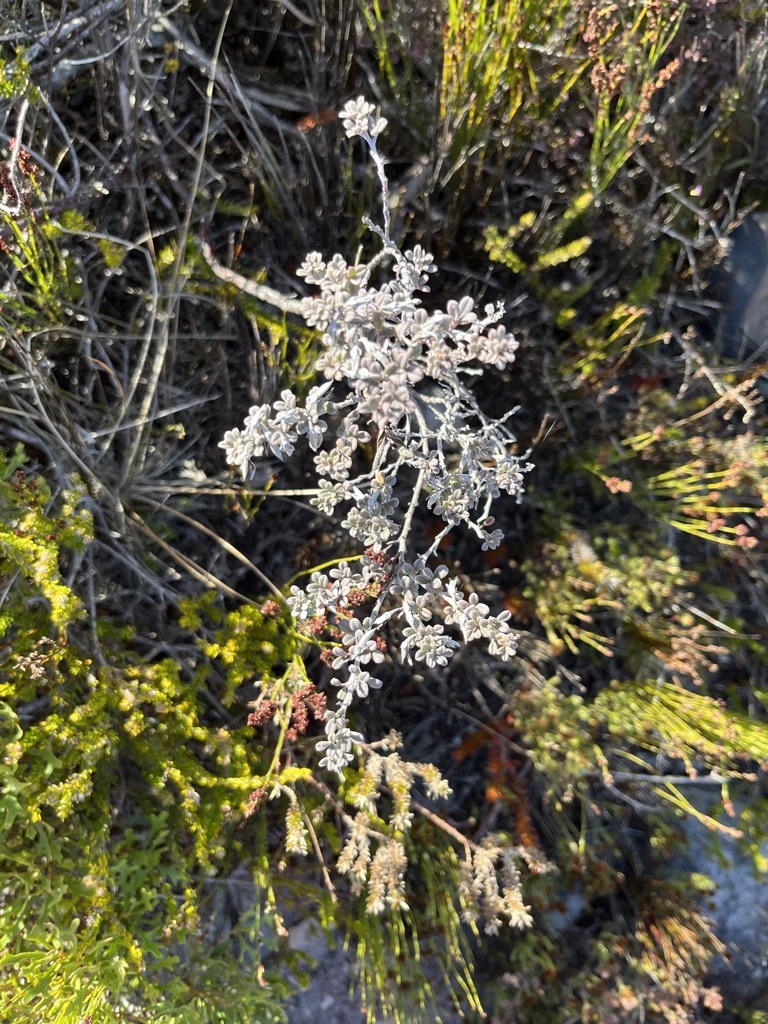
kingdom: Plantae
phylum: Tracheophyta
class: Magnoliopsida
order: Fabales
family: Fabaceae
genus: Indigofera
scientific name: Indigofera
